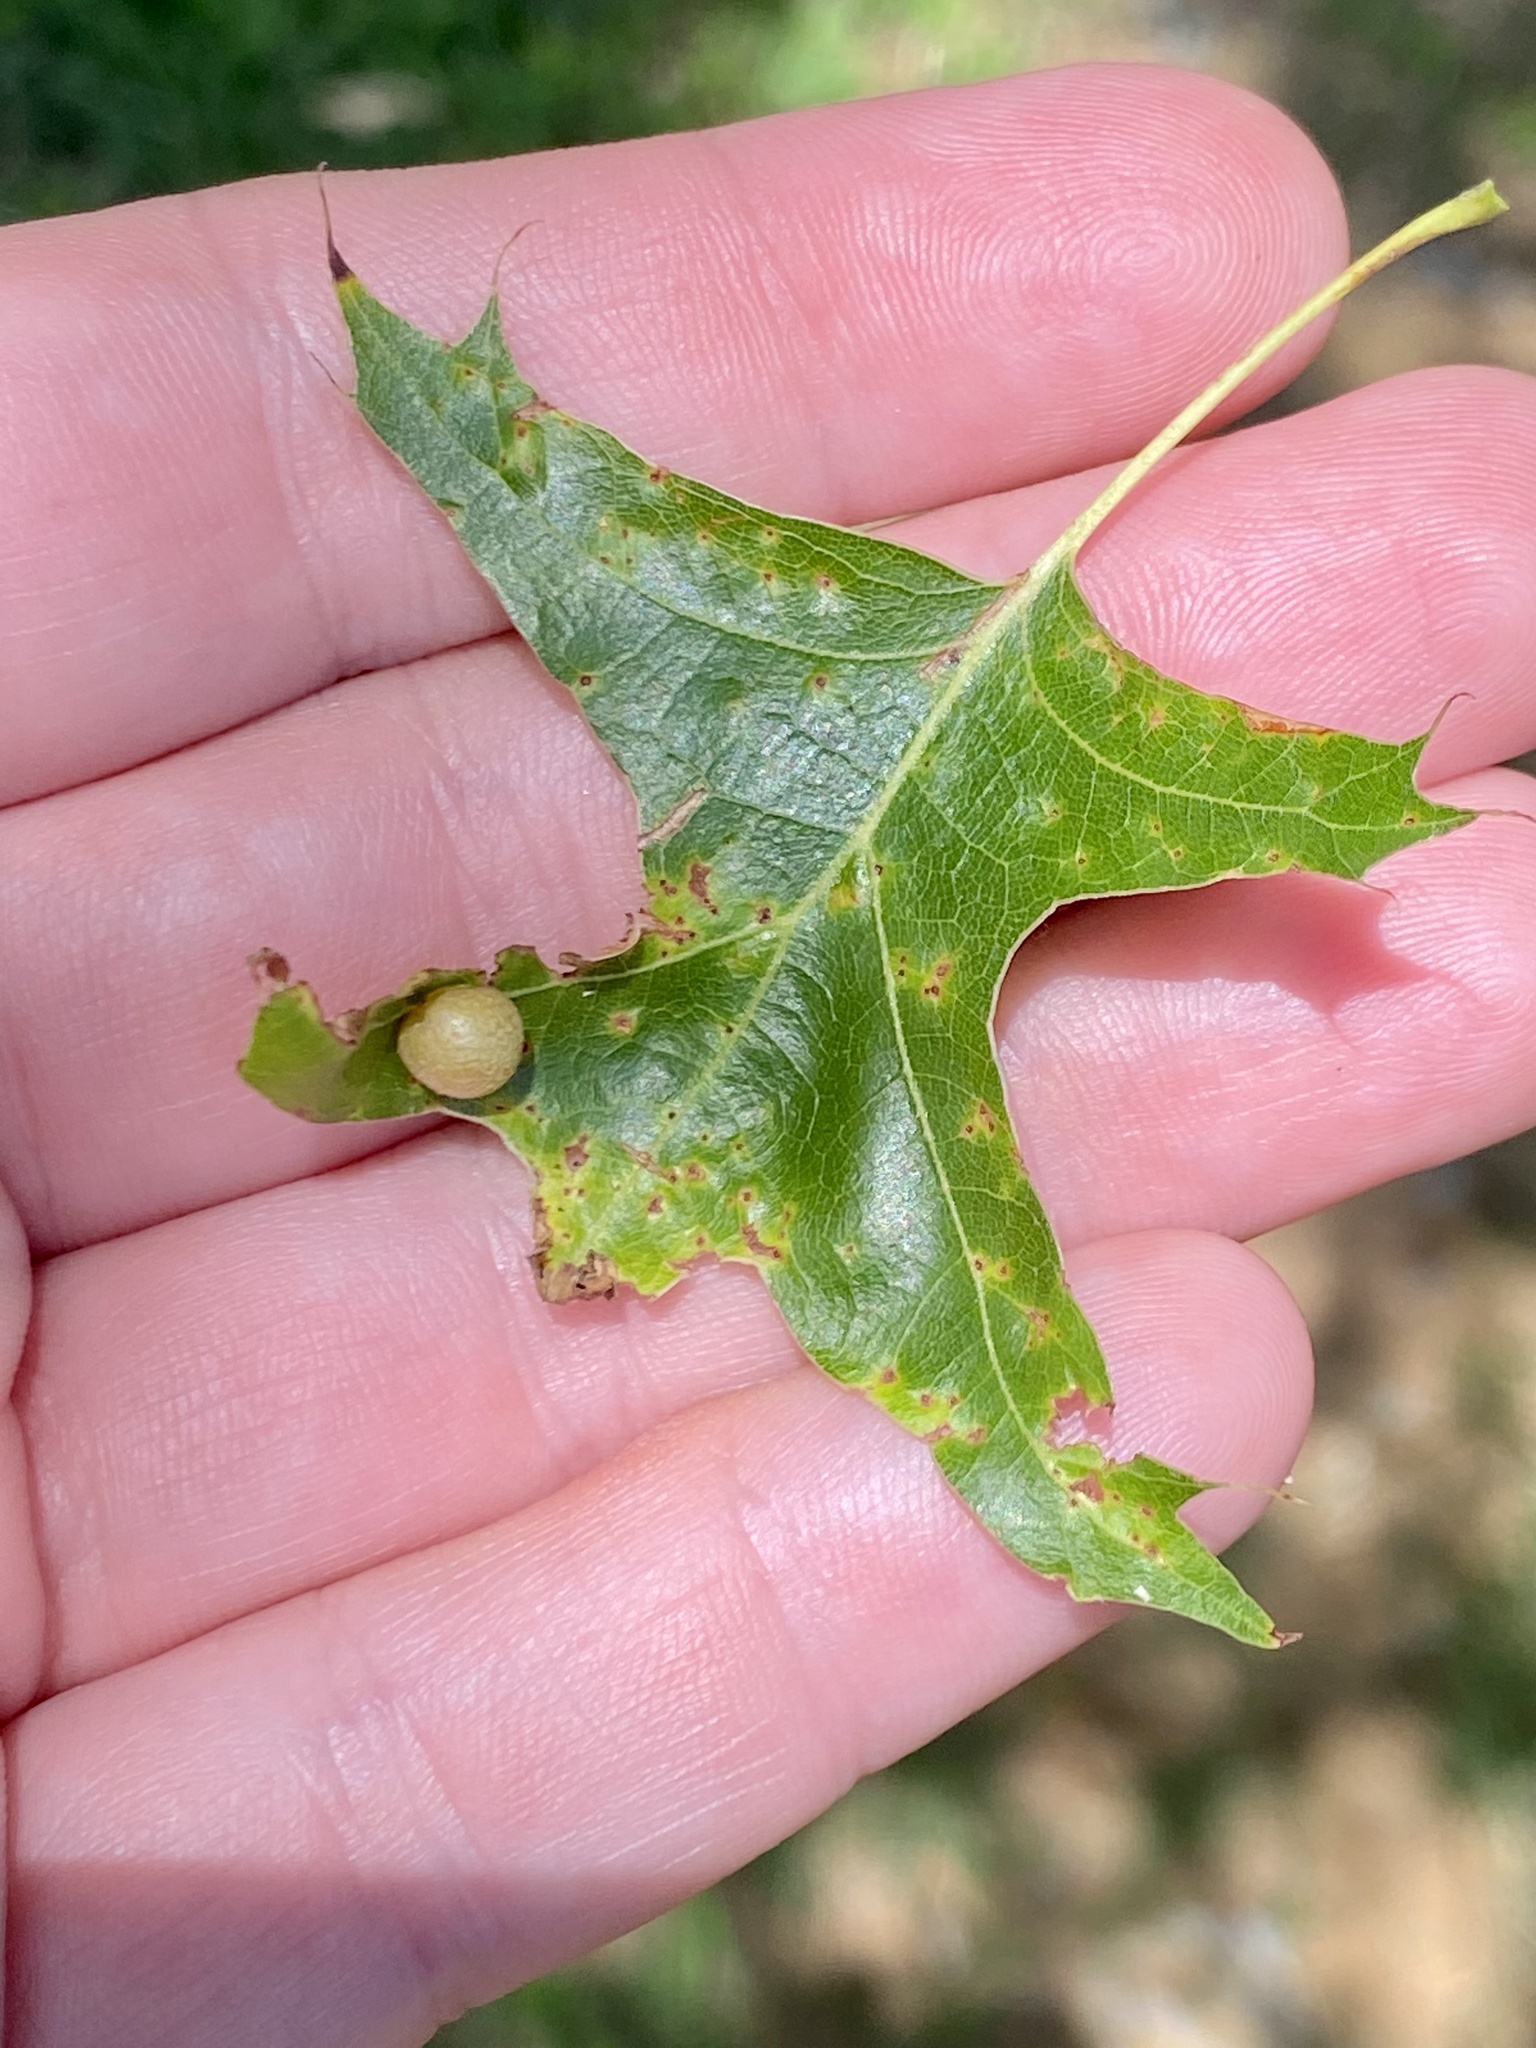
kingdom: Animalia
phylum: Arthropoda
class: Insecta
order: Diptera
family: Cecidomyiidae
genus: Polystepha
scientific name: Polystepha pilulae
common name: Oak leaf gall midge
